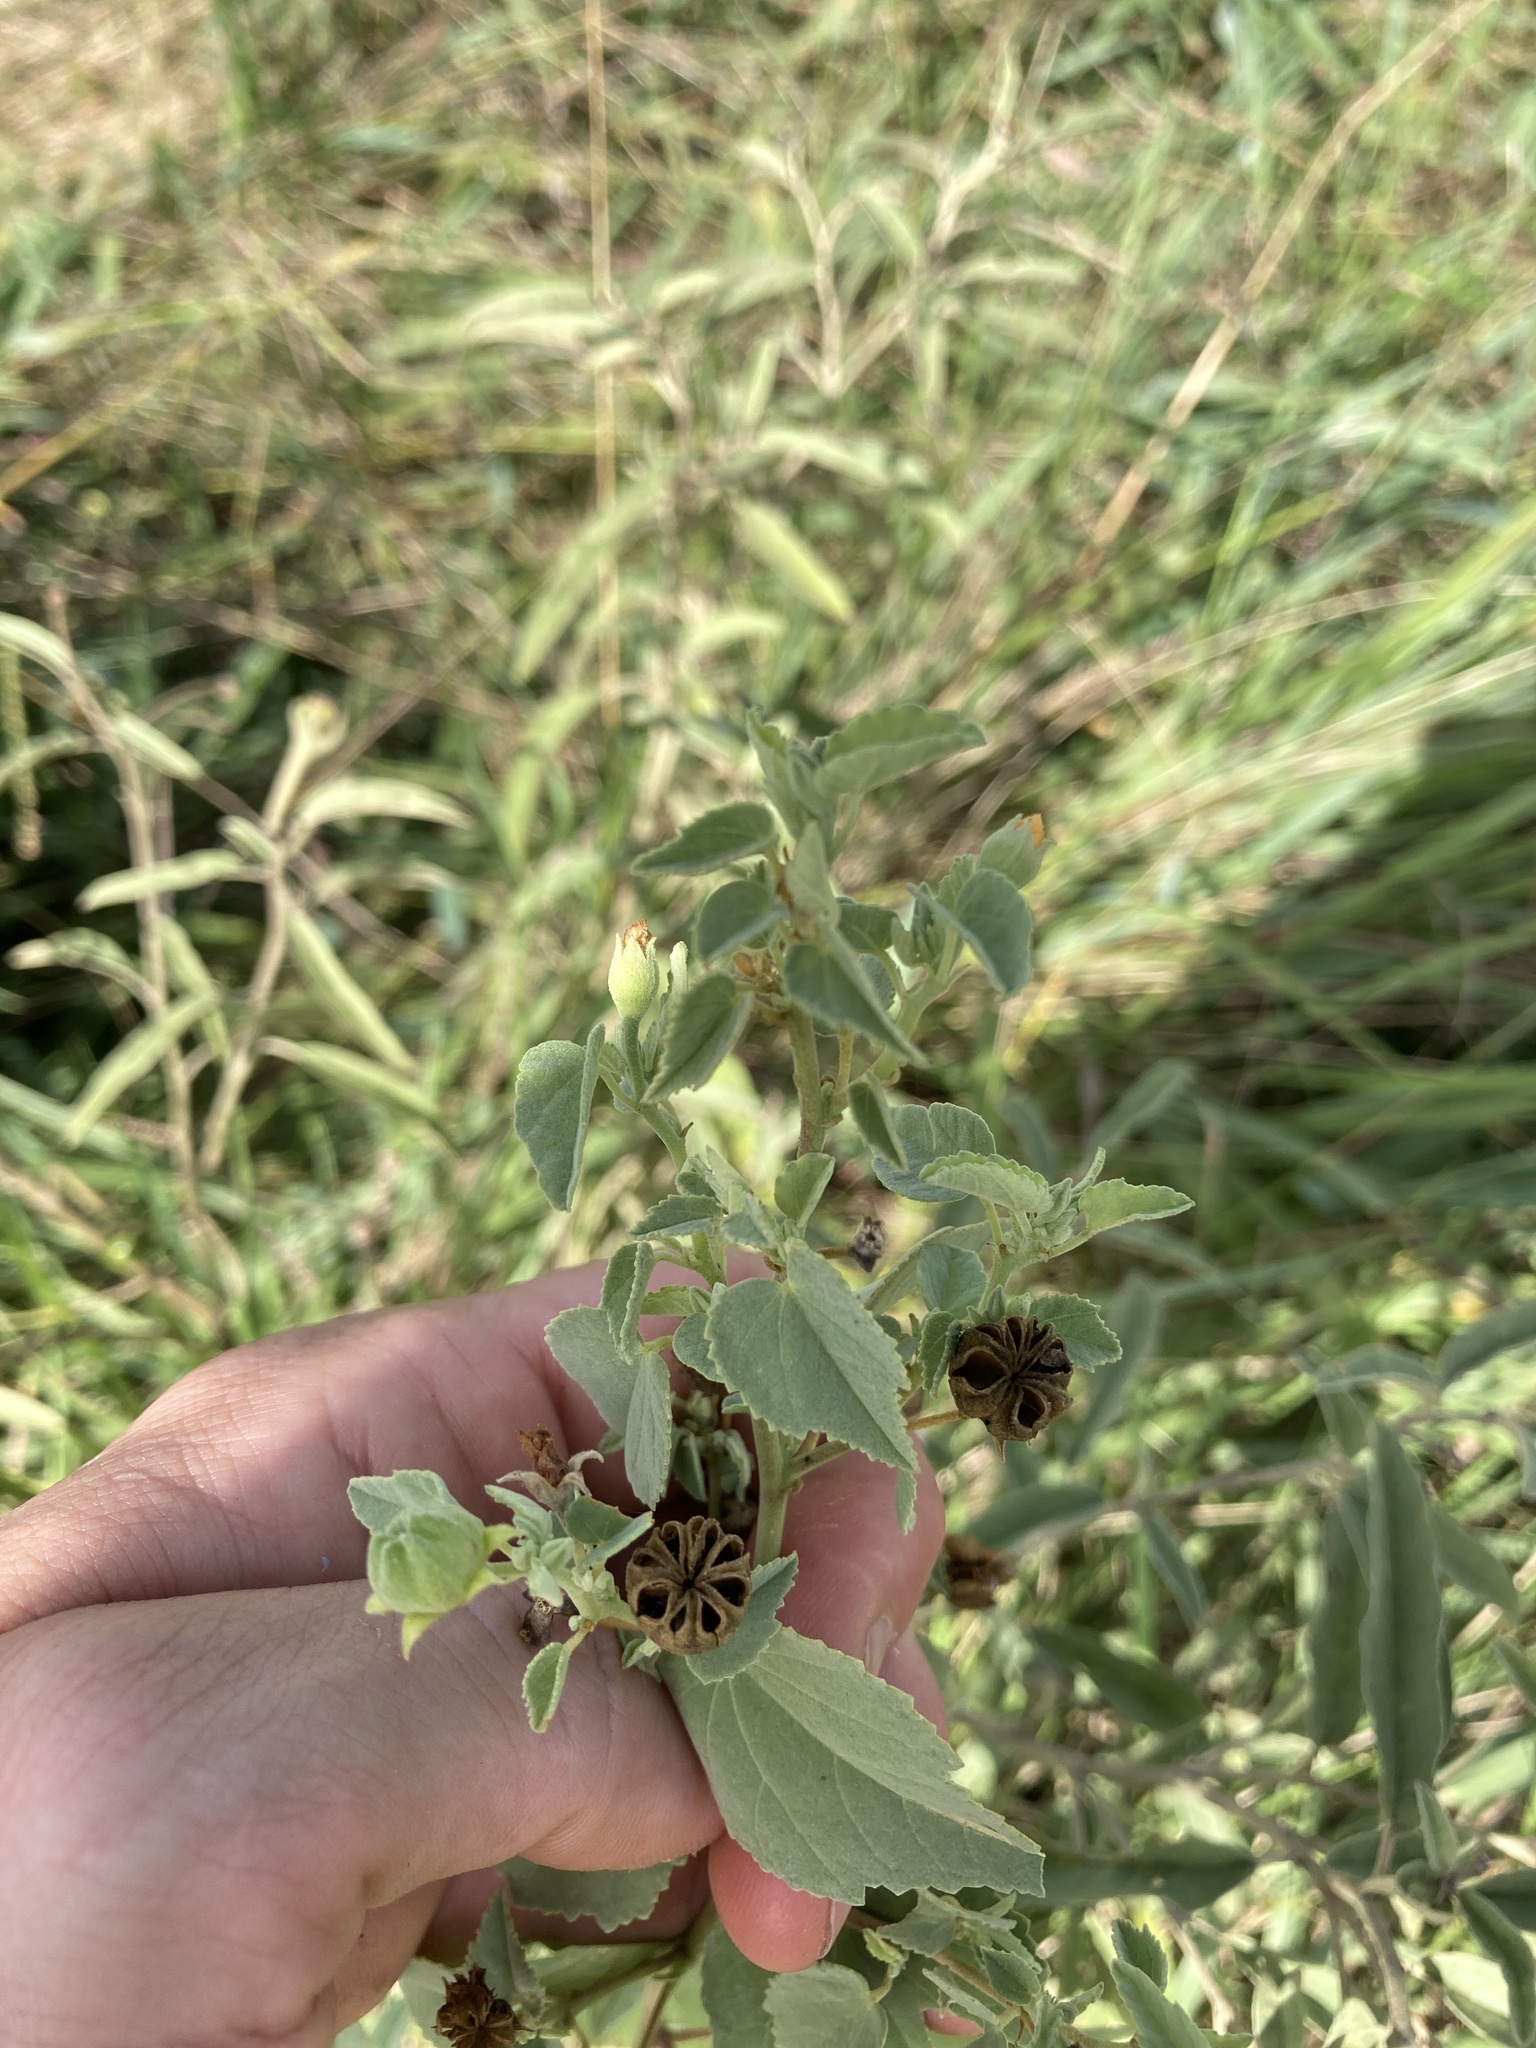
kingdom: Plantae
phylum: Tracheophyta
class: Magnoliopsida
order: Malvales
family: Malvaceae
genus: Abutilon
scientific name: Abutilon fruticosum
